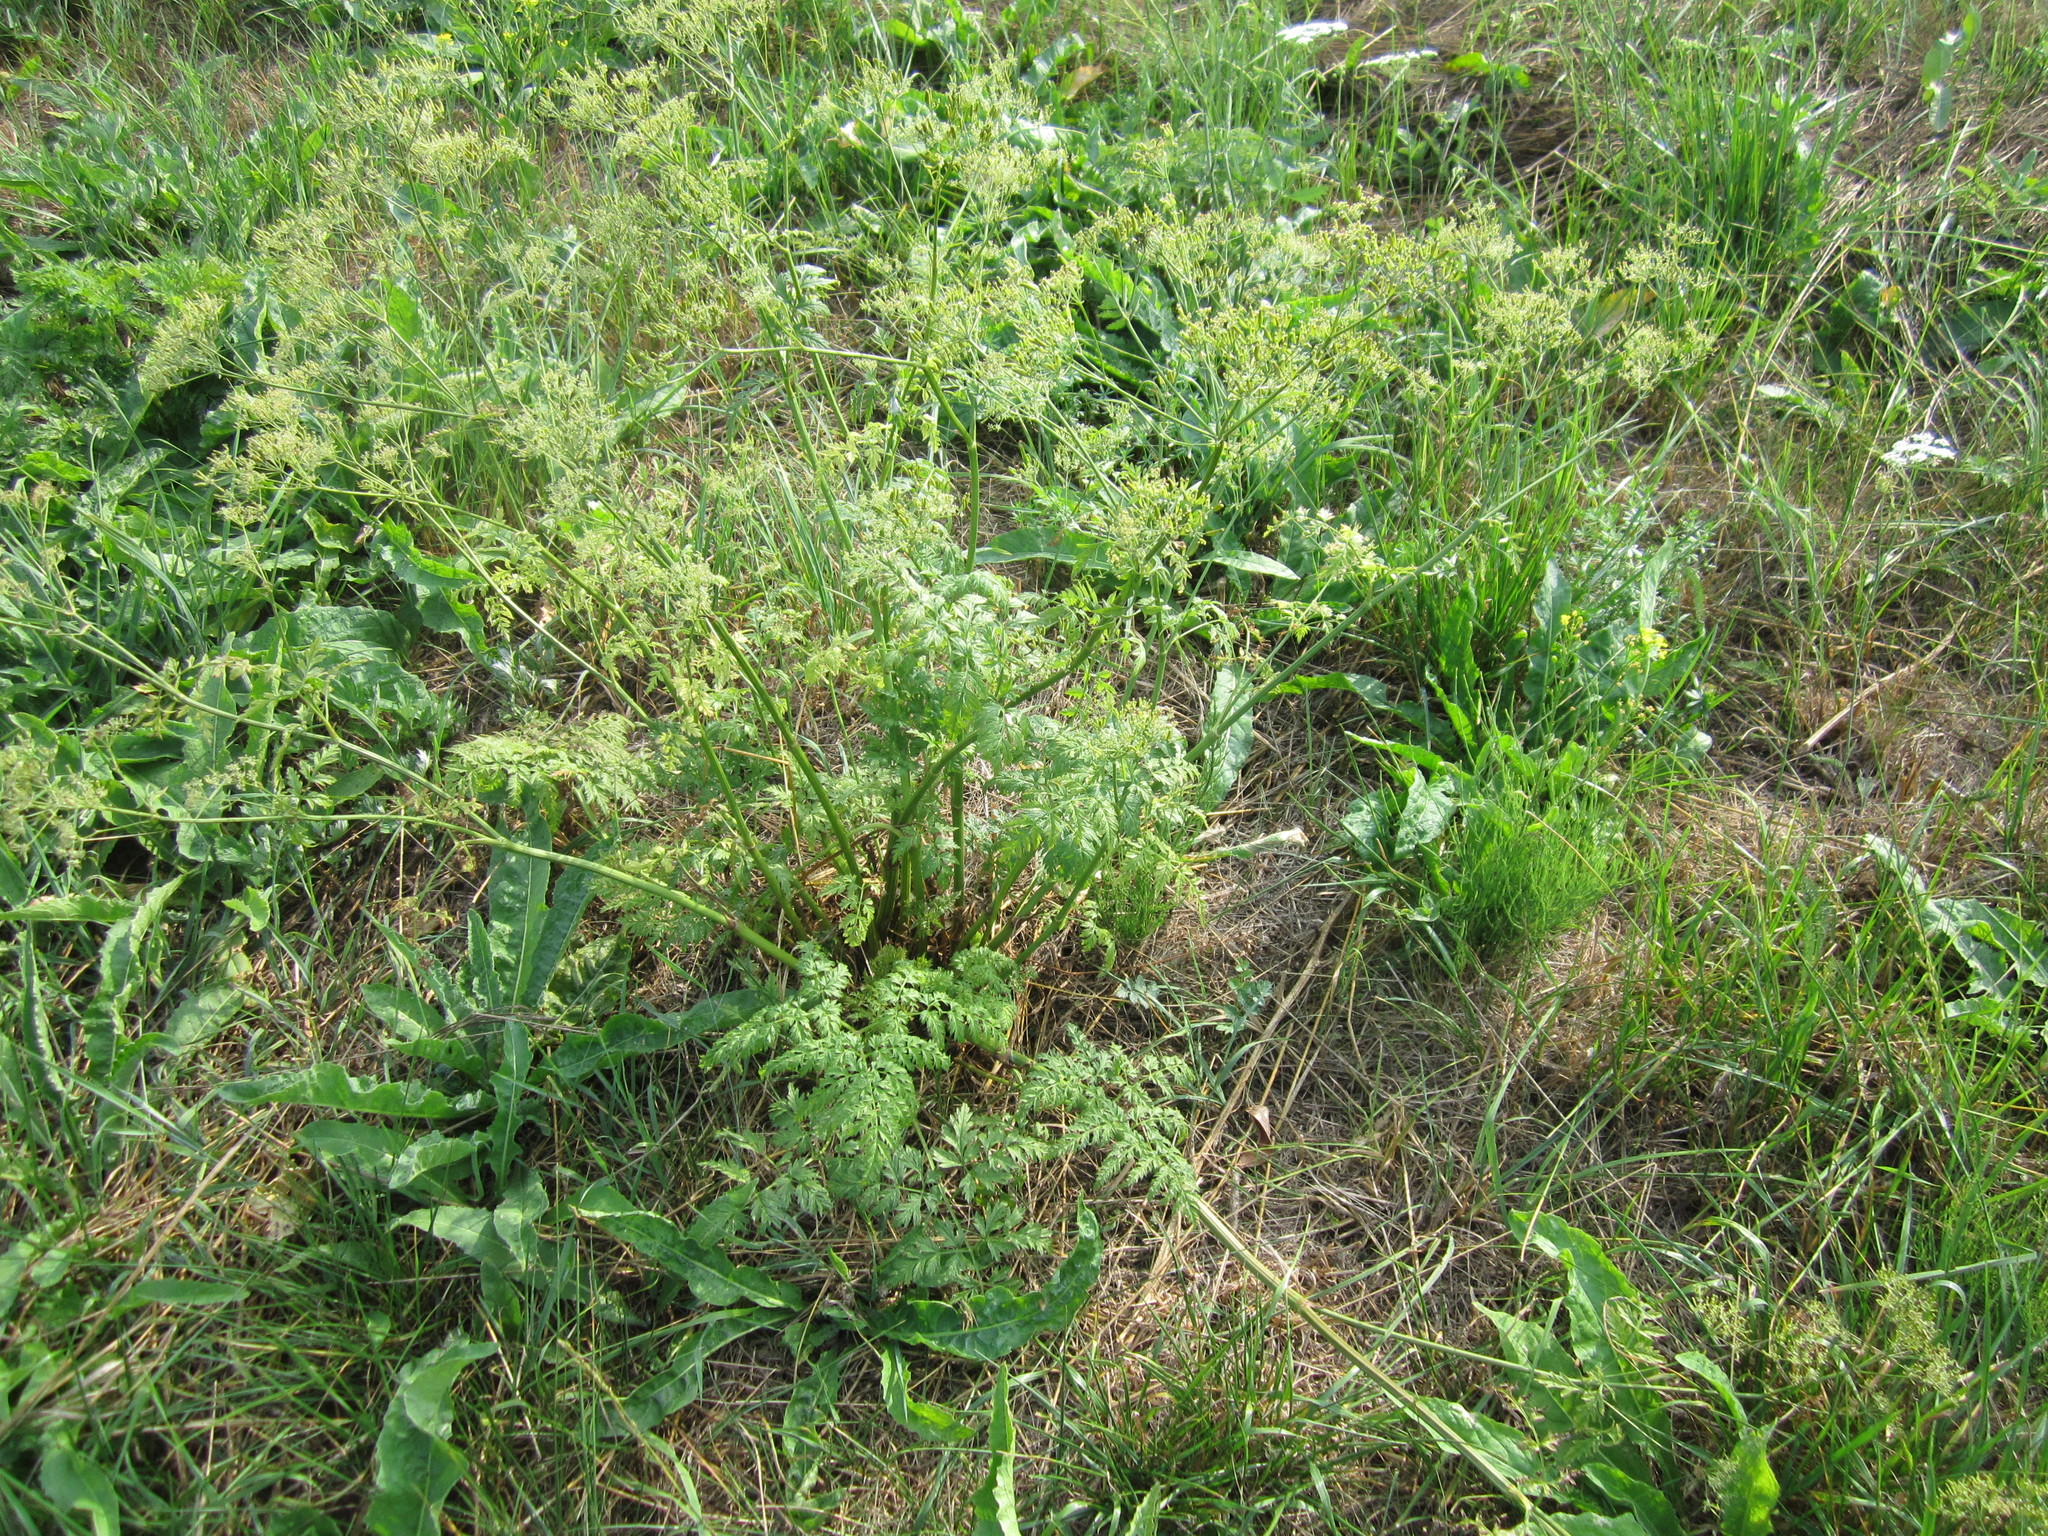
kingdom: Plantae
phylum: Tracheophyta
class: Magnoliopsida
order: Apiales
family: Apiaceae
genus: Anthriscus
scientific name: Anthriscus sylvestris
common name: Cow parsley
